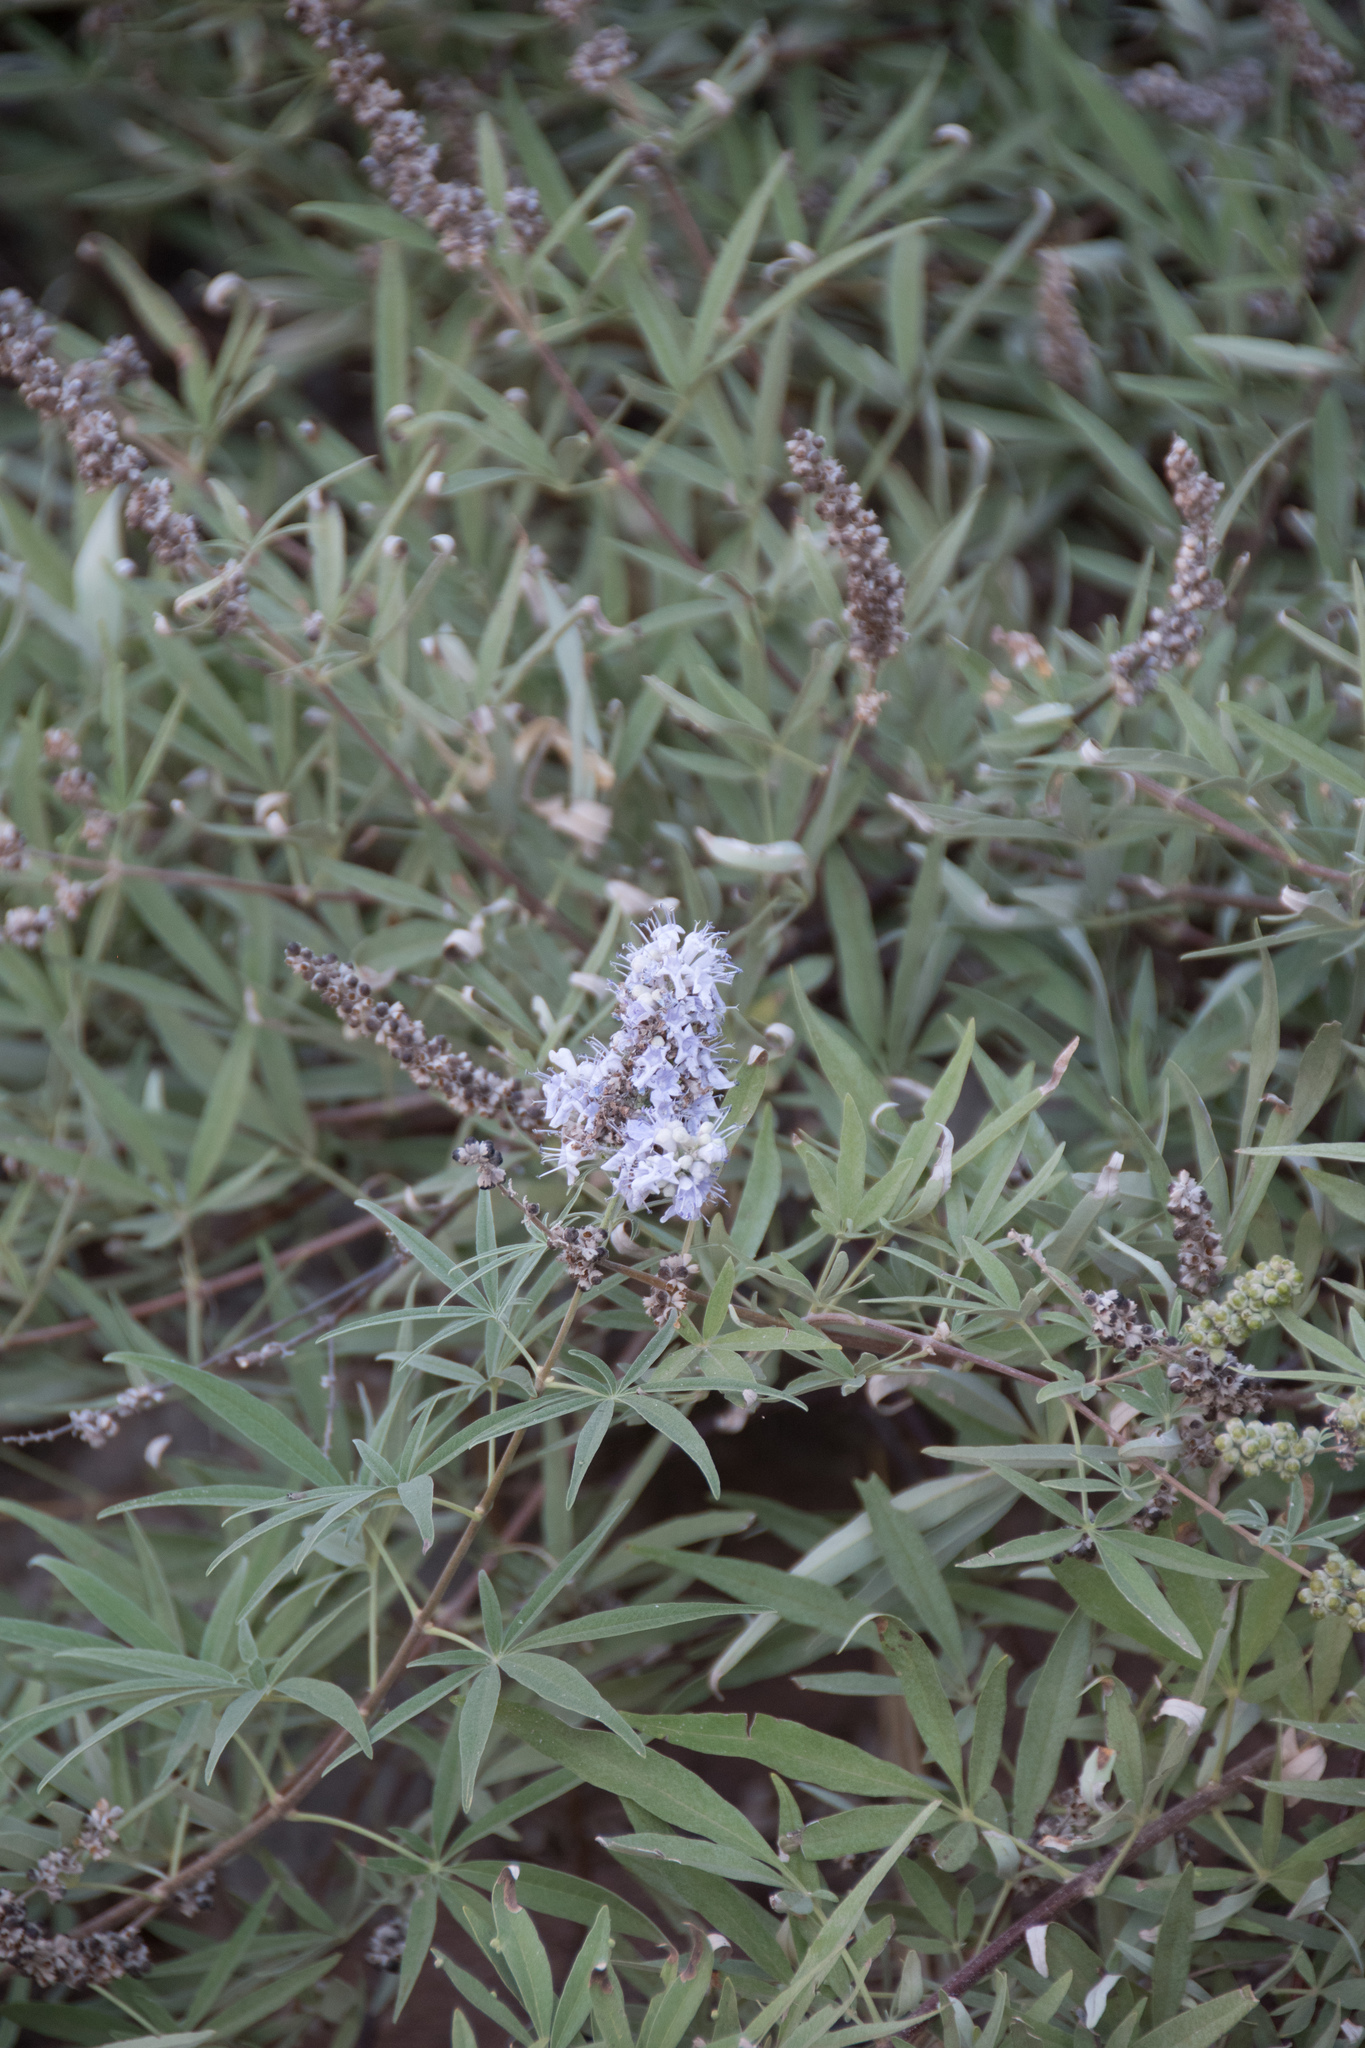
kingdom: Plantae
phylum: Tracheophyta
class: Magnoliopsida
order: Lamiales
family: Lamiaceae
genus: Vitex
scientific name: Vitex agnus-castus
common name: Chasteberry
